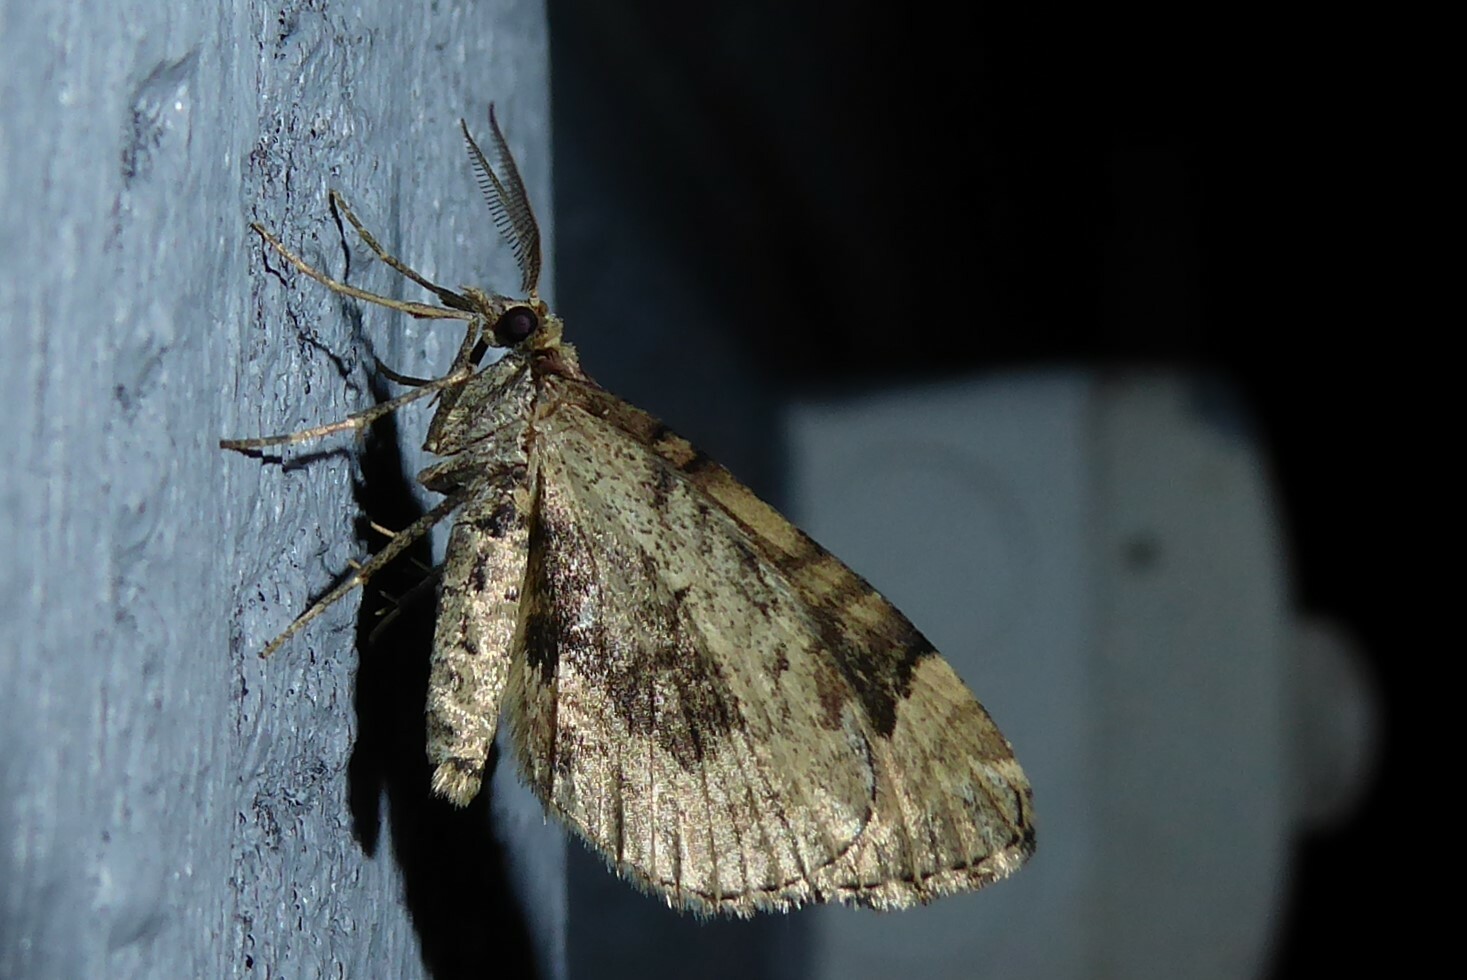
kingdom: Animalia
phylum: Arthropoda
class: Insecta
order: Lepidoptera
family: Geometridae
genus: Asaphodes
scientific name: Asaphodes aegrota
